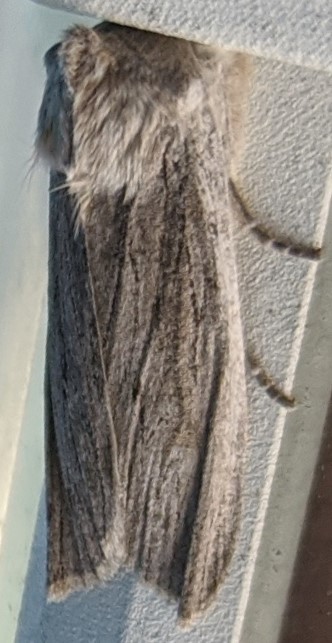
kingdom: Animalia
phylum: Arthropoda
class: Insecta
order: Lepidoptera
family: Noctuidae
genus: Lithophane
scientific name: Lithophane fagina
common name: Hoary pinion moth
